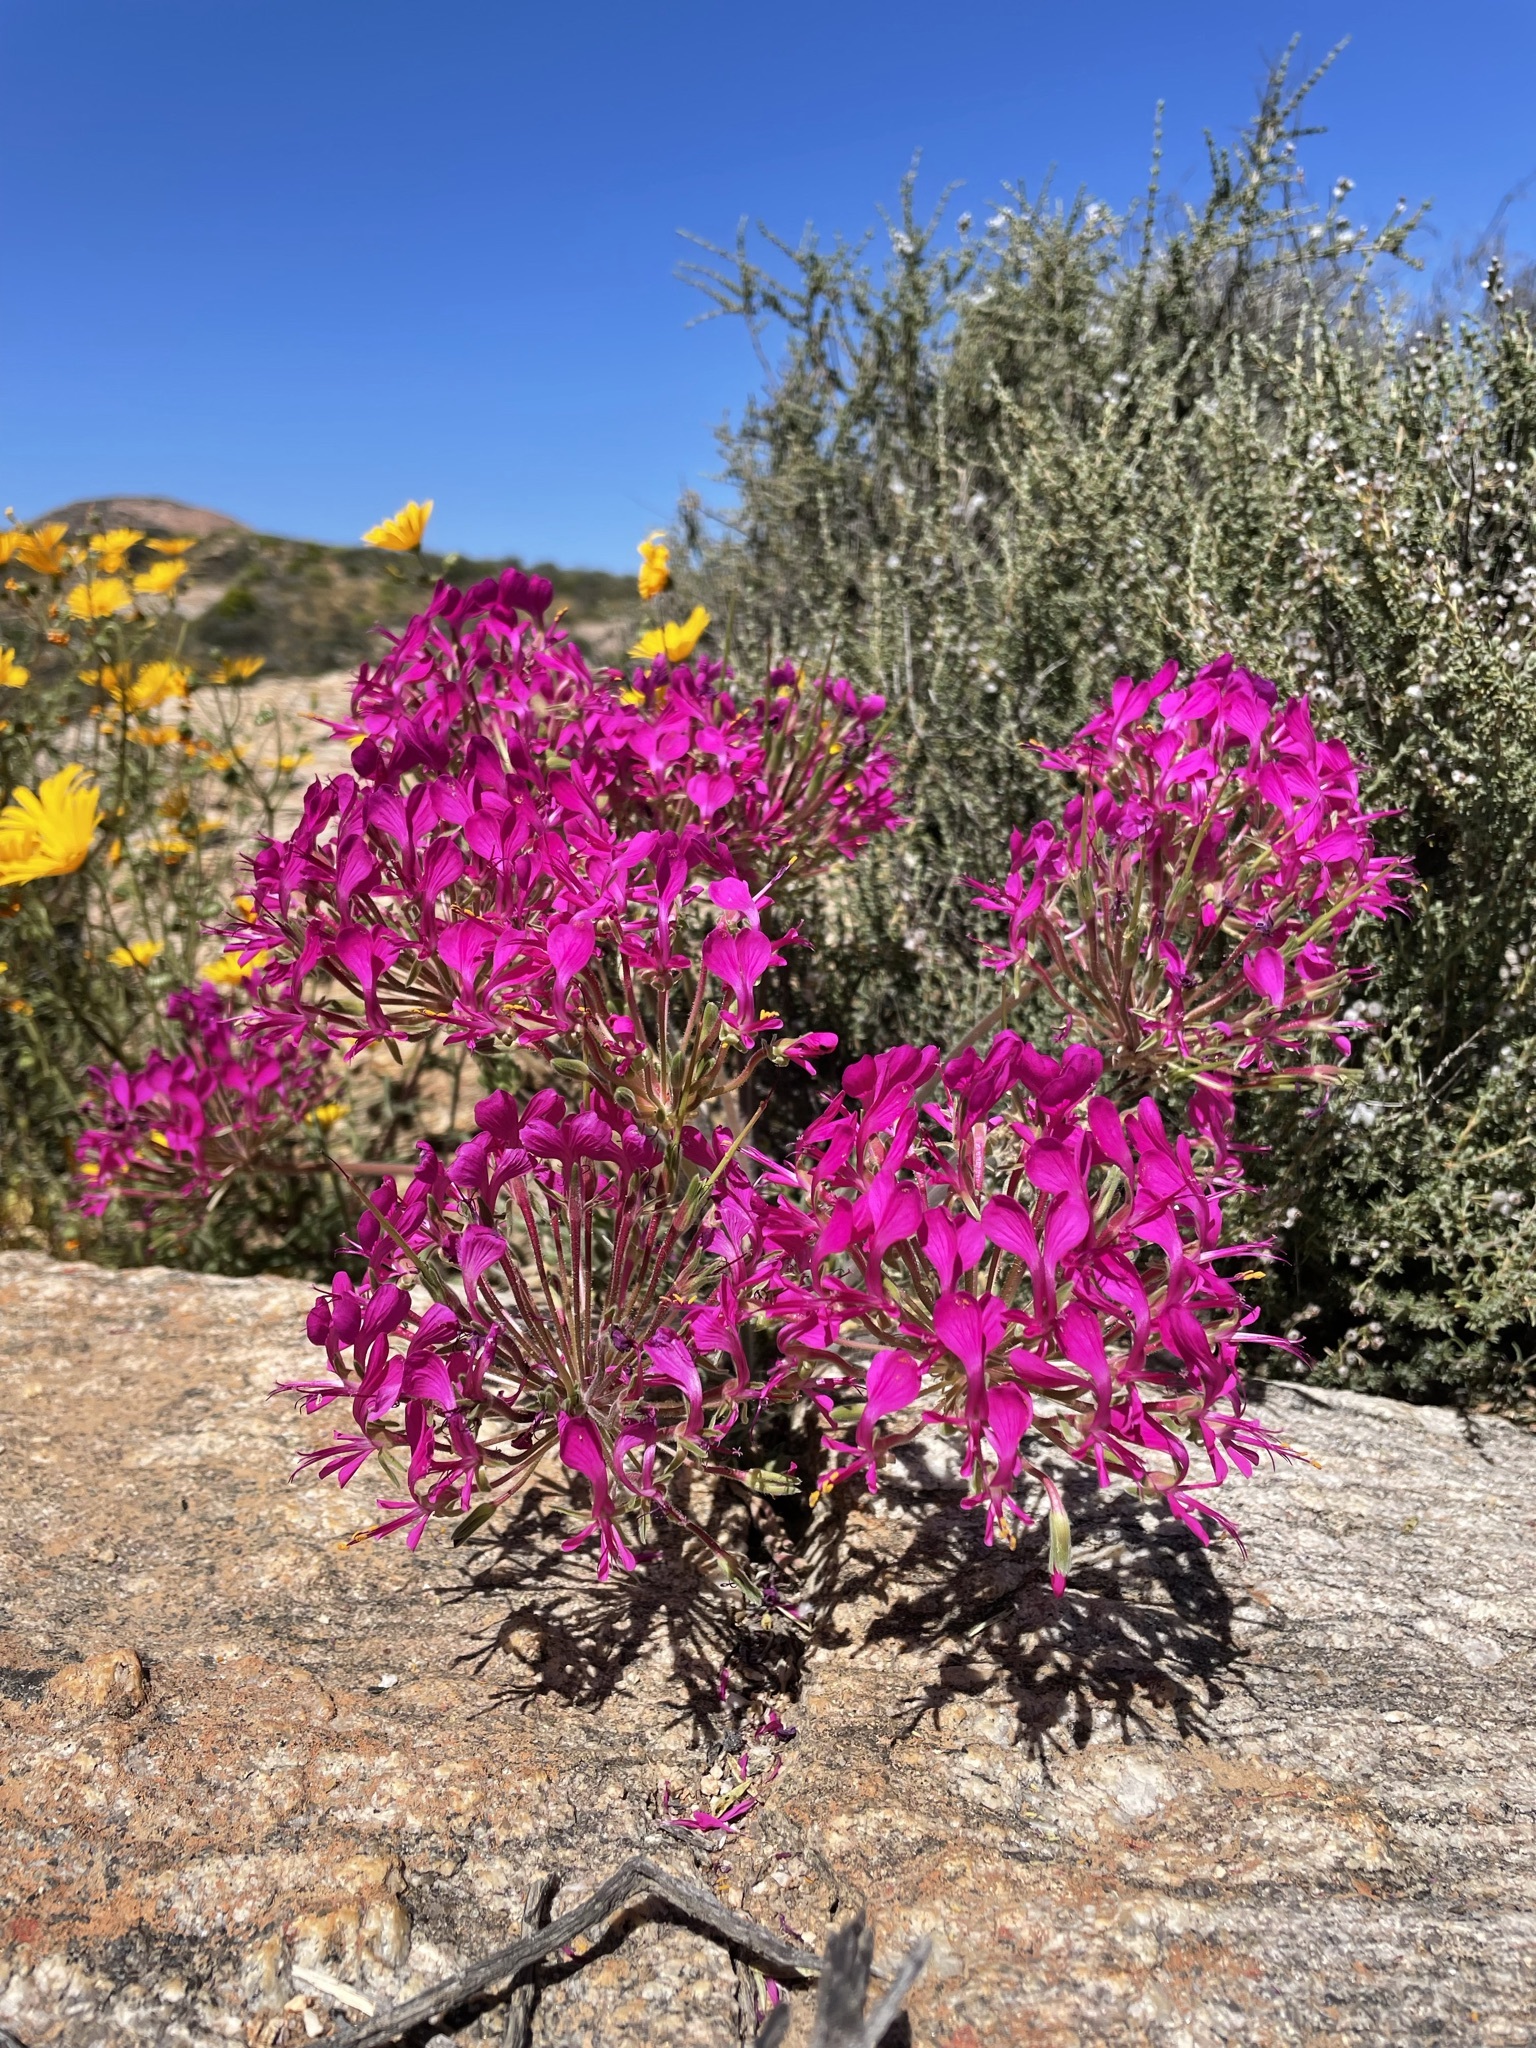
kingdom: Plantae
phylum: Tracheophyta
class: Magnoliopsida
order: Geraniales
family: Geraniaceae
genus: Pelargonium
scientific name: Pelargonium incrassatum
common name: Namaqualand beauty
